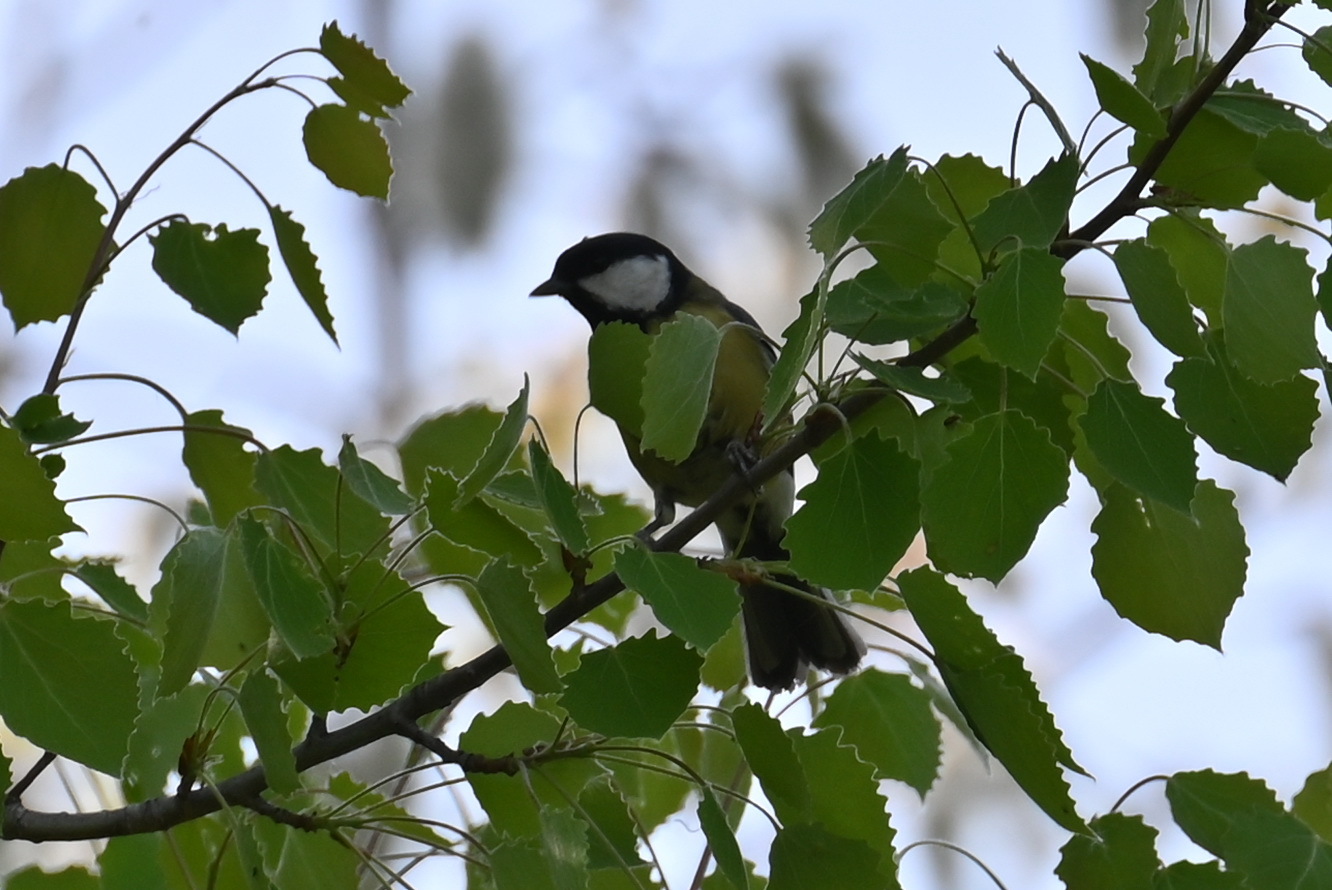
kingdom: Animalia
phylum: Chordata
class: Aves
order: Passeriformes
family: Paridae
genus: Parus
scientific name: Parus major
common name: Great tit
